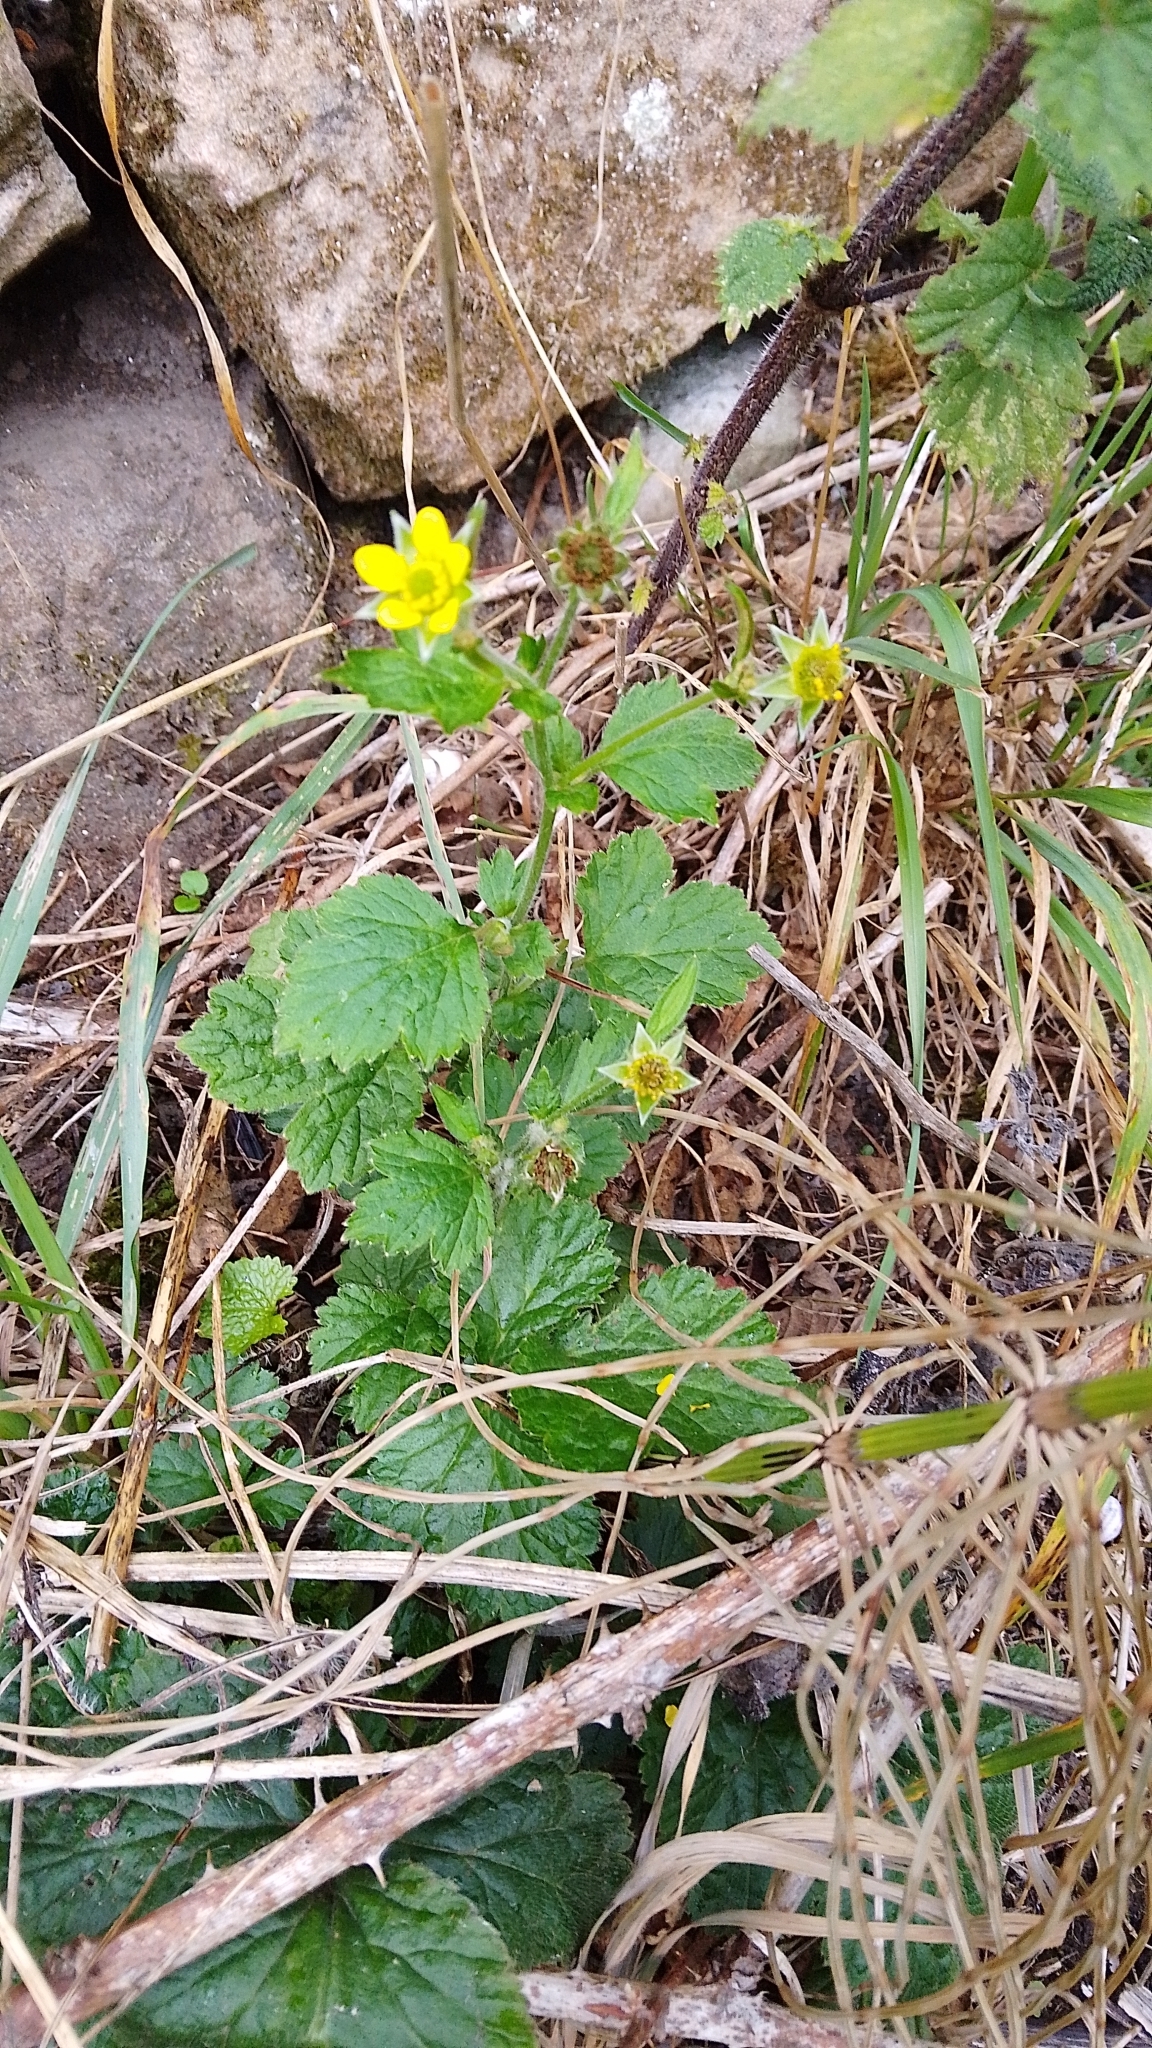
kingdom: Plantae
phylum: Tracheophyta
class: Magnoliopsida
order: Rosales
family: Rosaceae
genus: Geum
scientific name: Geum urbanum
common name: Wood avens
